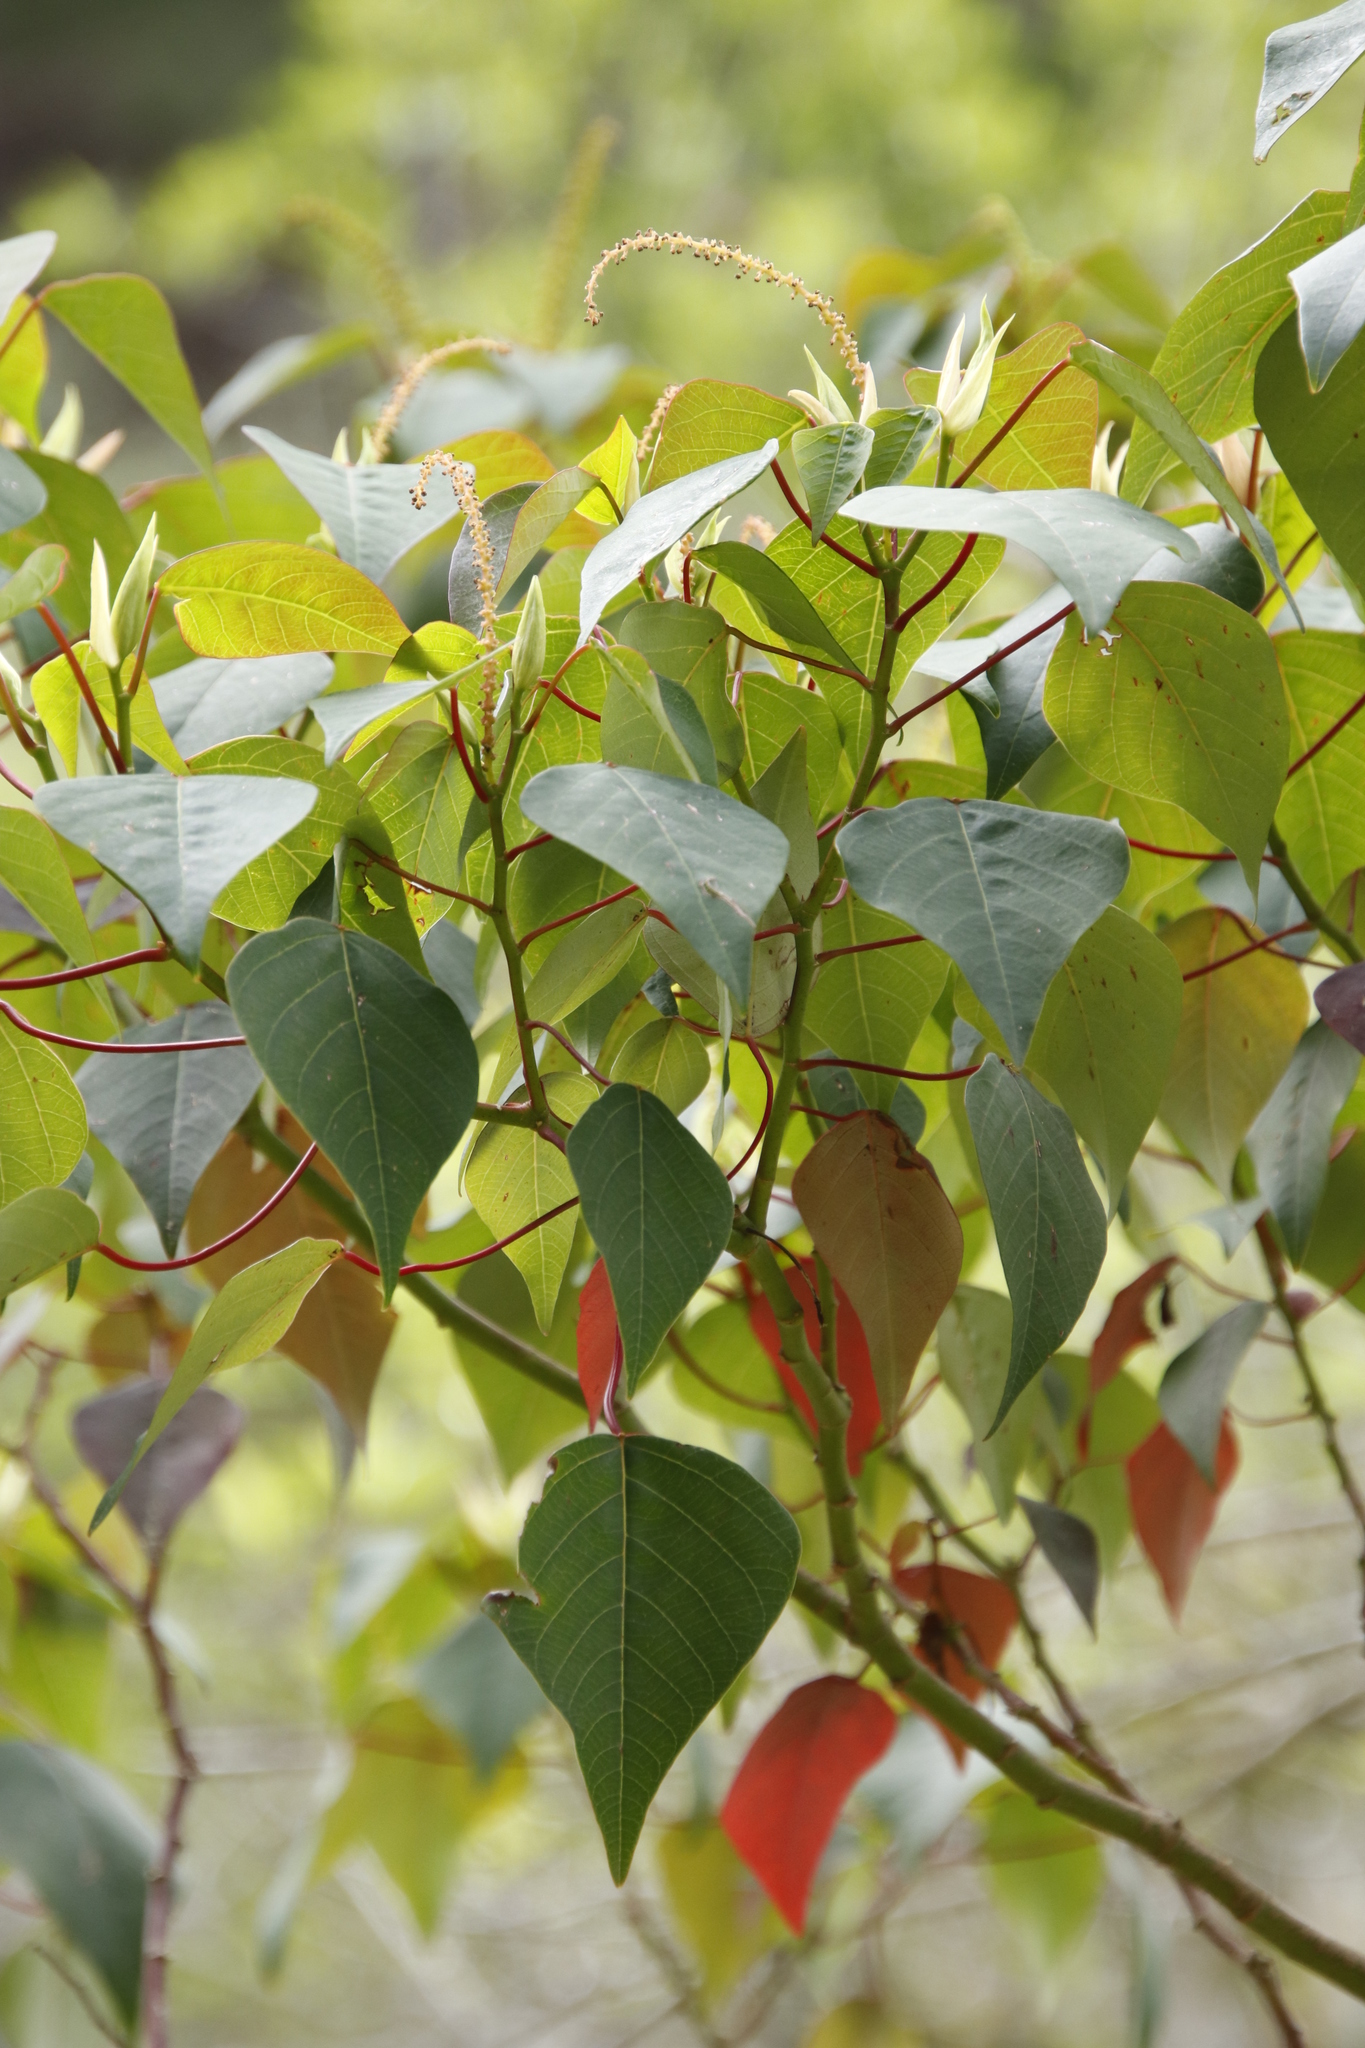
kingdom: Plantae
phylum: Tracheophyta
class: Magnoliopsida
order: Malpighiales
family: Euphorbiaceae
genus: Homalanthus
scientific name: Homalanthus populifolius
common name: Queensland poplar
